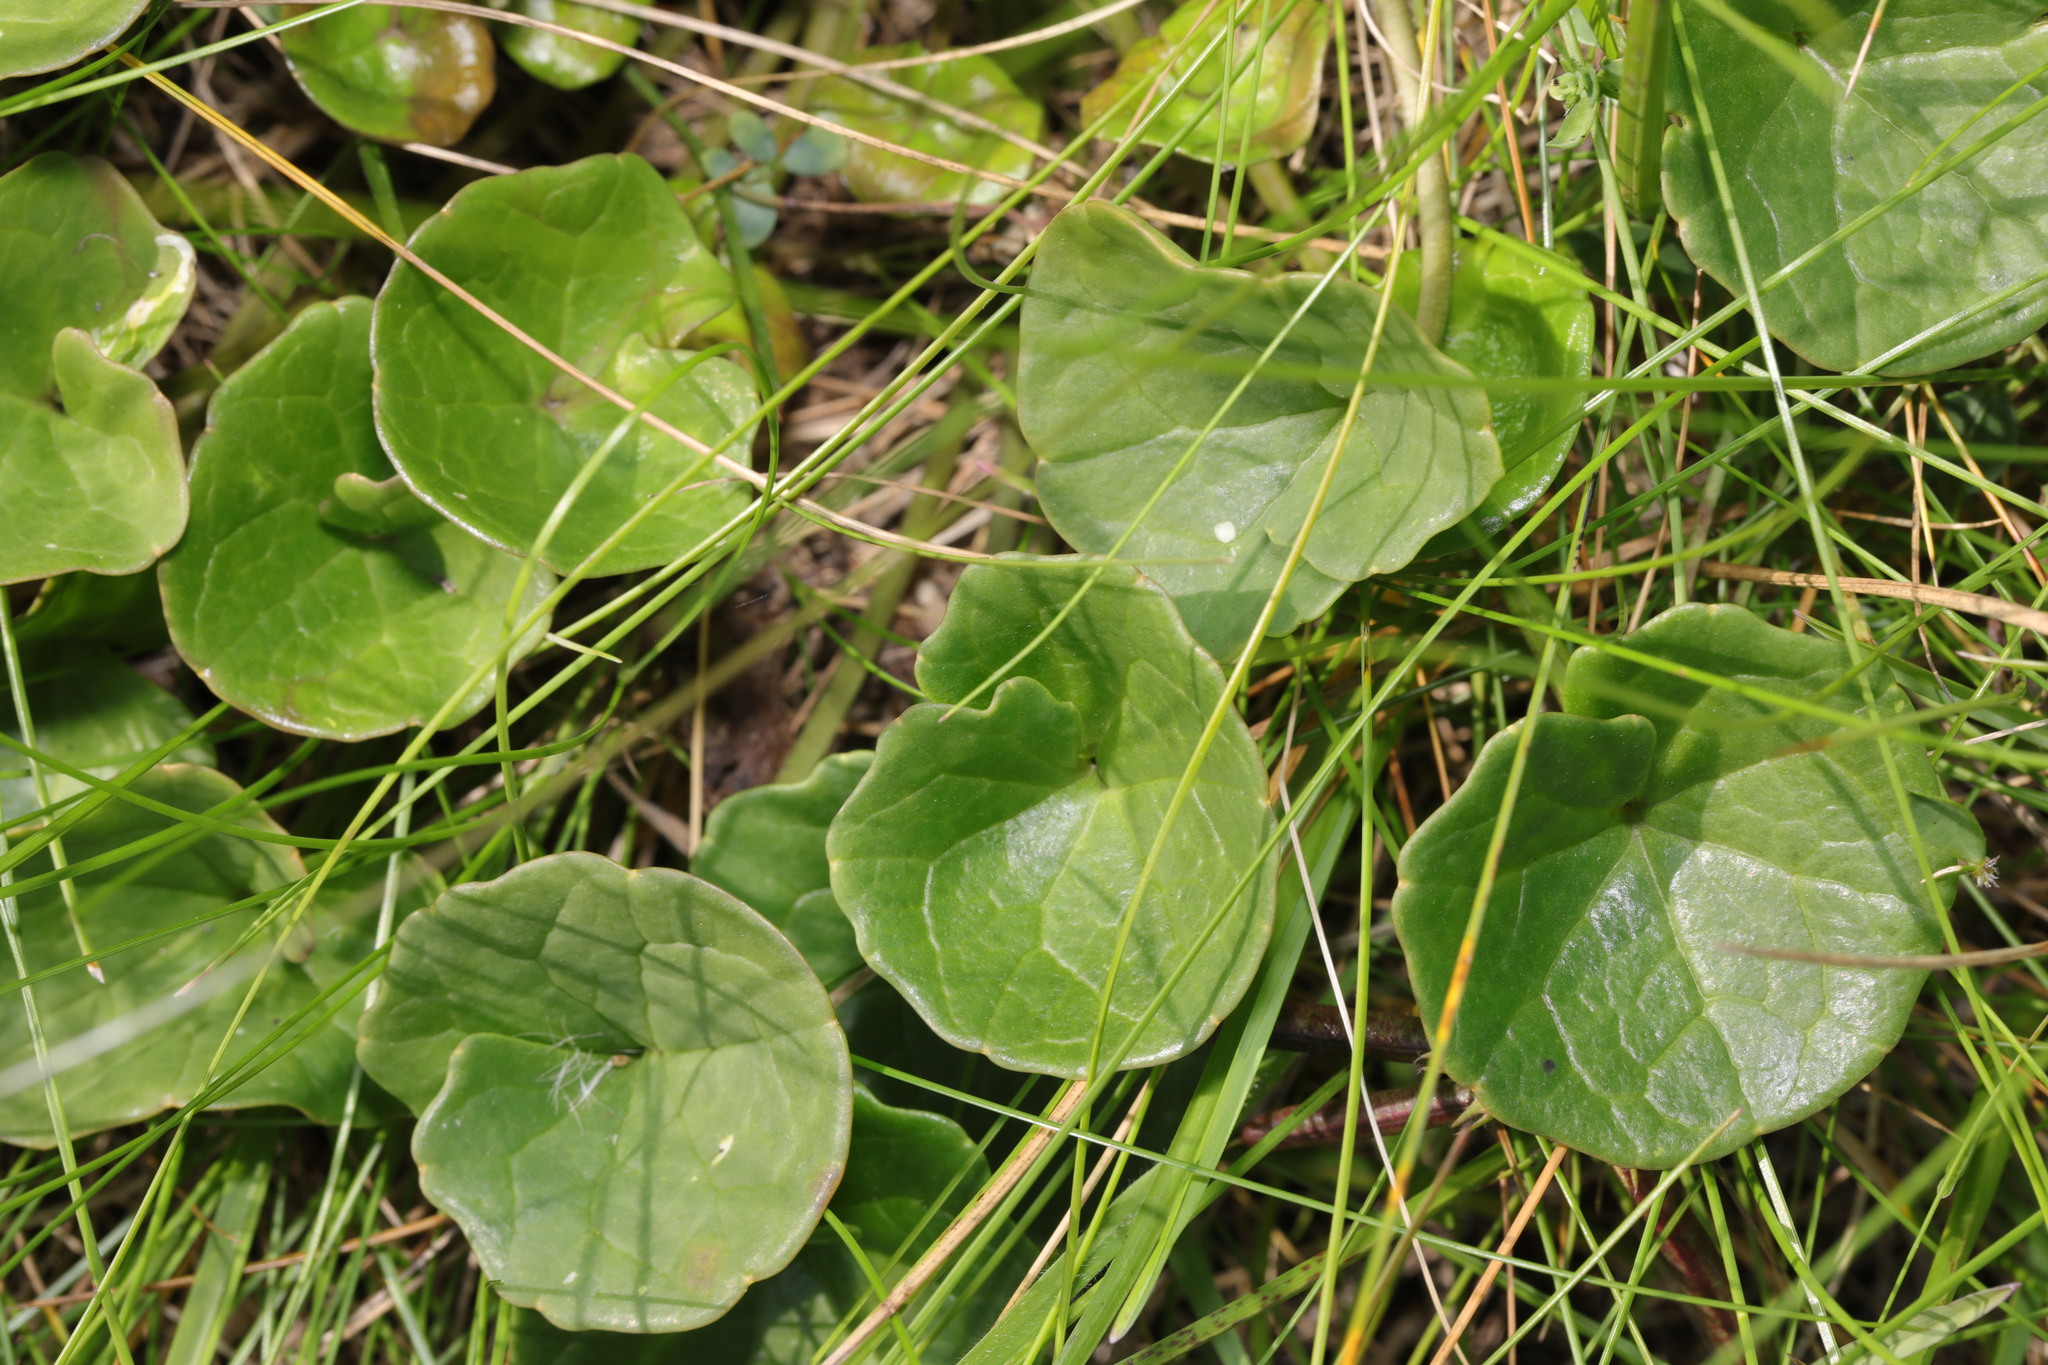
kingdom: Plantae
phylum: Tracheophyta
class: Magnoliopsida
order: Ericales
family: Ericaceae
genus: Pyrola
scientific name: Pyrola rotundifolia
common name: Round-leaved wintergreen
